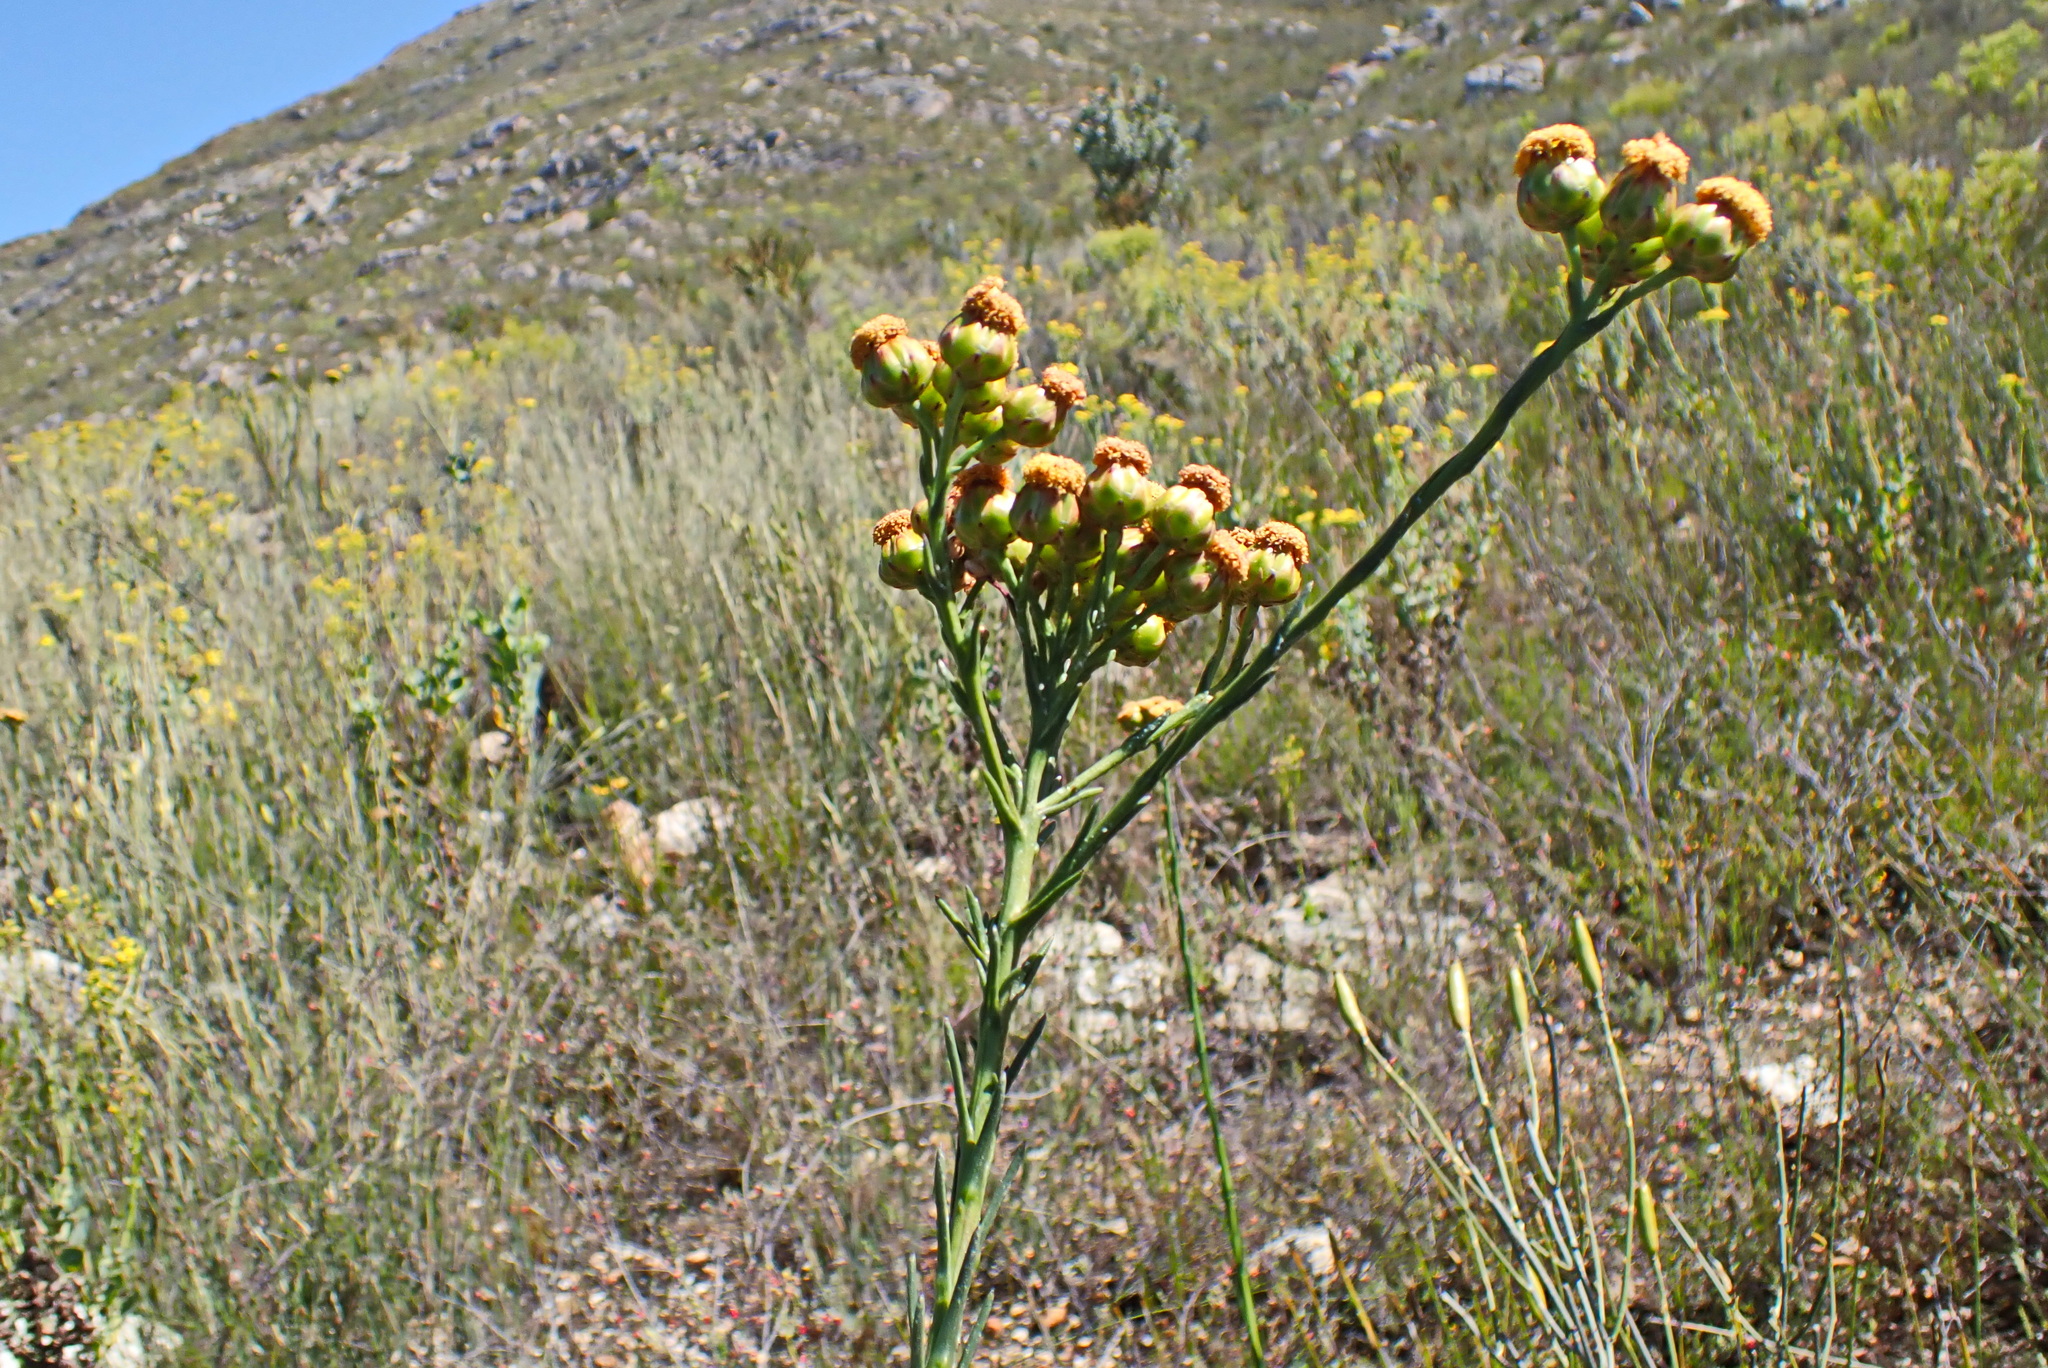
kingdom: Plantae
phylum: Tracheophyta
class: Magnoliopsida
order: Asterales
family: Asteraceae
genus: Athanasia
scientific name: Athanasia linifolia
